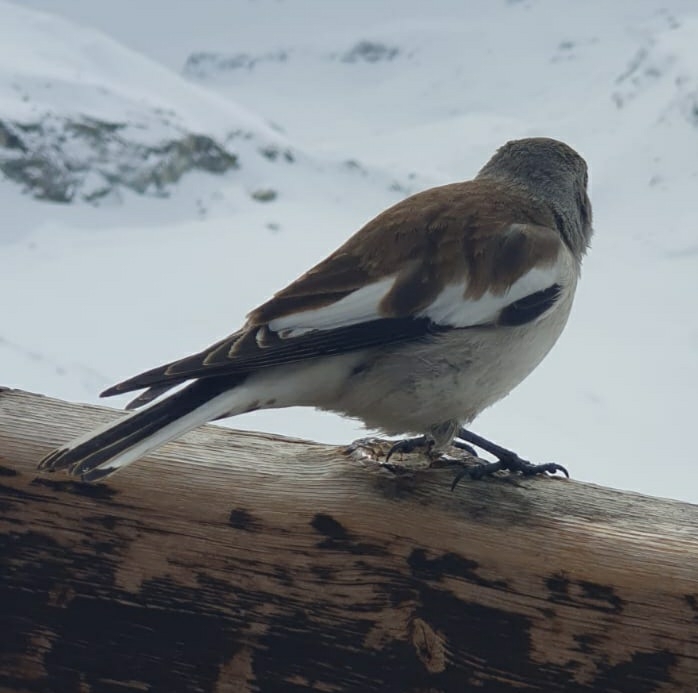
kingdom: Animalia
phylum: Chordata
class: Aves
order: Passeriformes
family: Passeridae
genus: Montifringilla
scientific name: Montifringilla nivalis
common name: White-winged snowfinch
